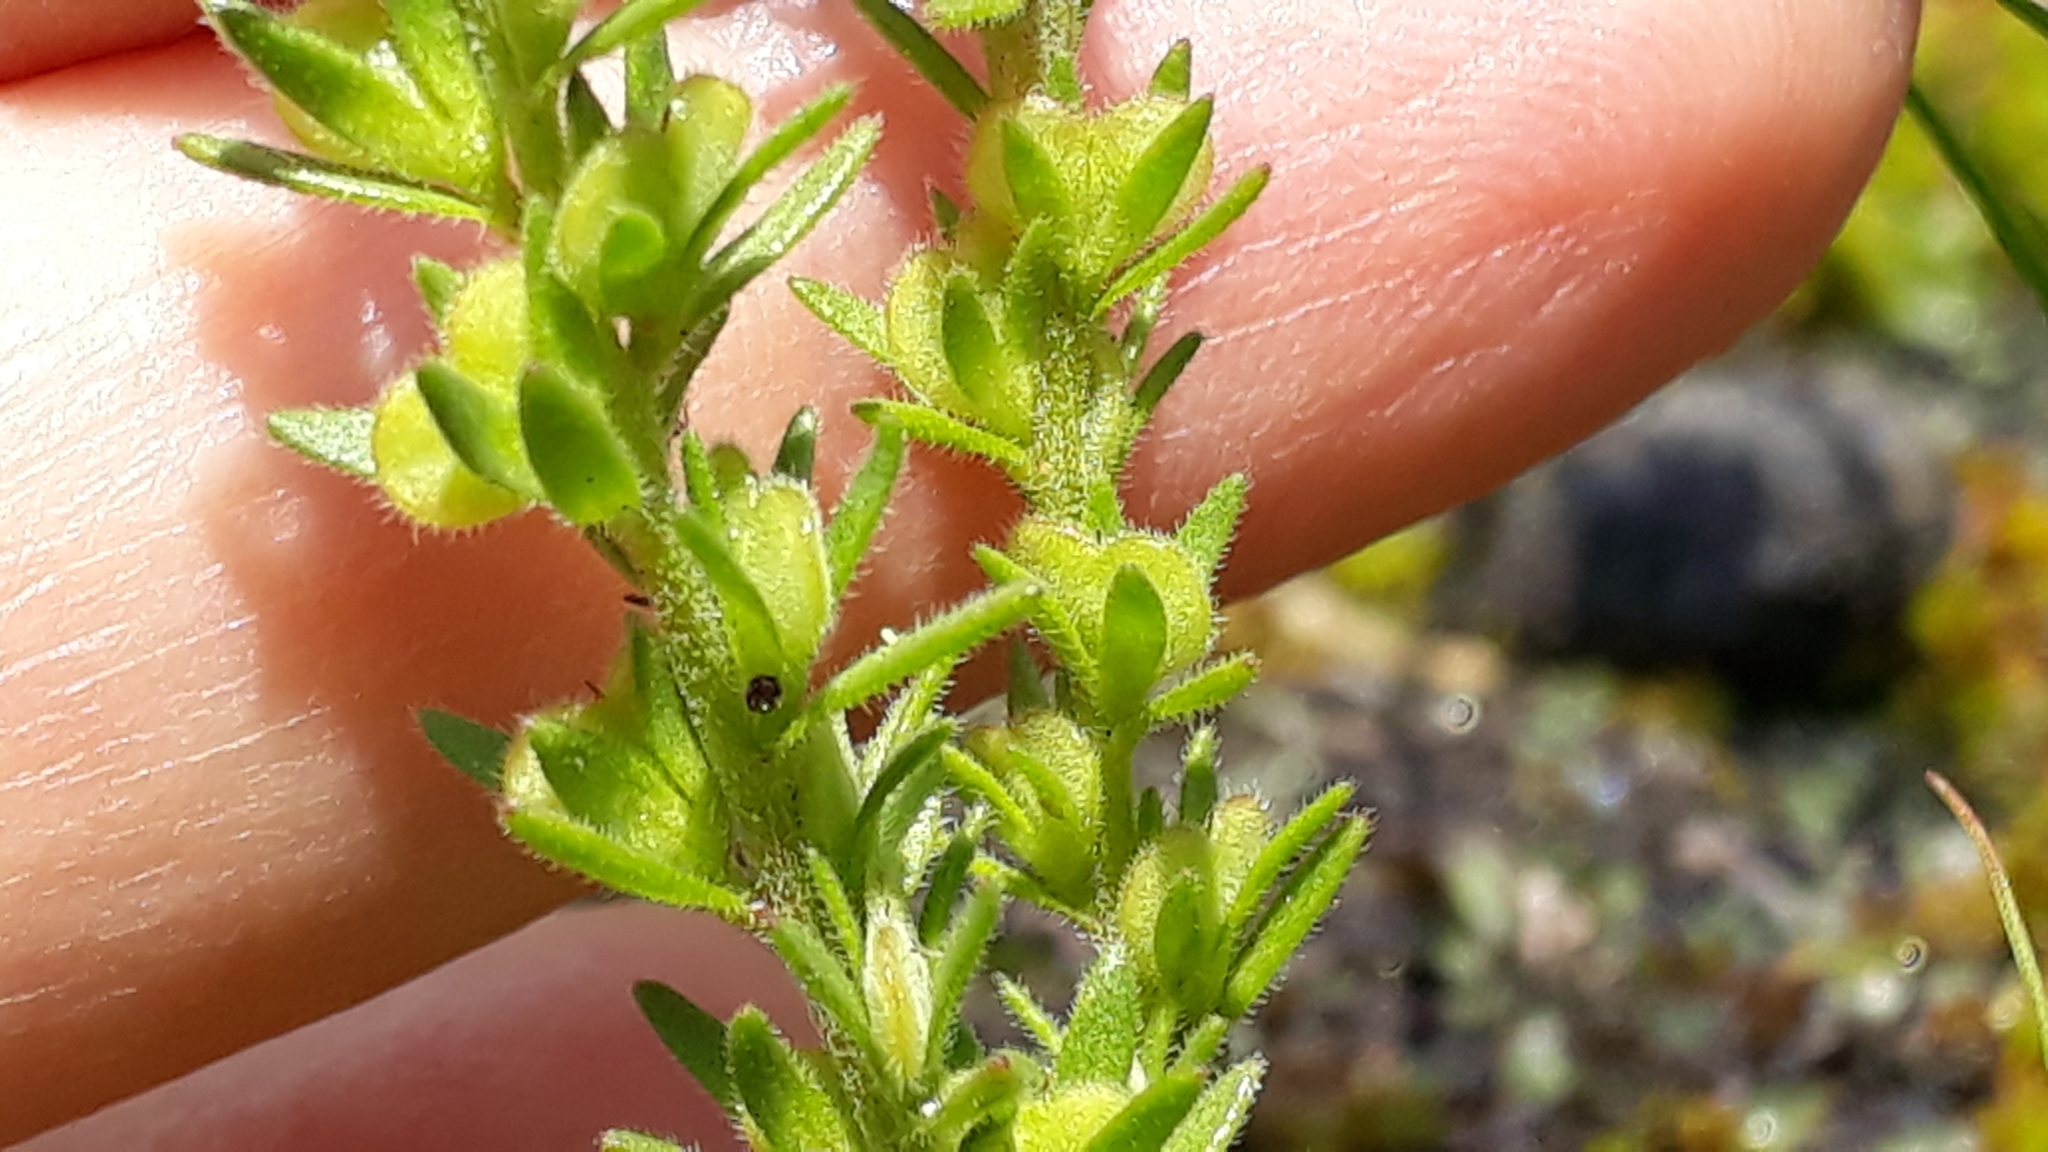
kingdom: Plantae
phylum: Tracheophyta
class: Magnoliopsida
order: Lamiales
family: Plantaginaceae
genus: Veronica
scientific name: Veronica verna
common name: Spring speedwell
